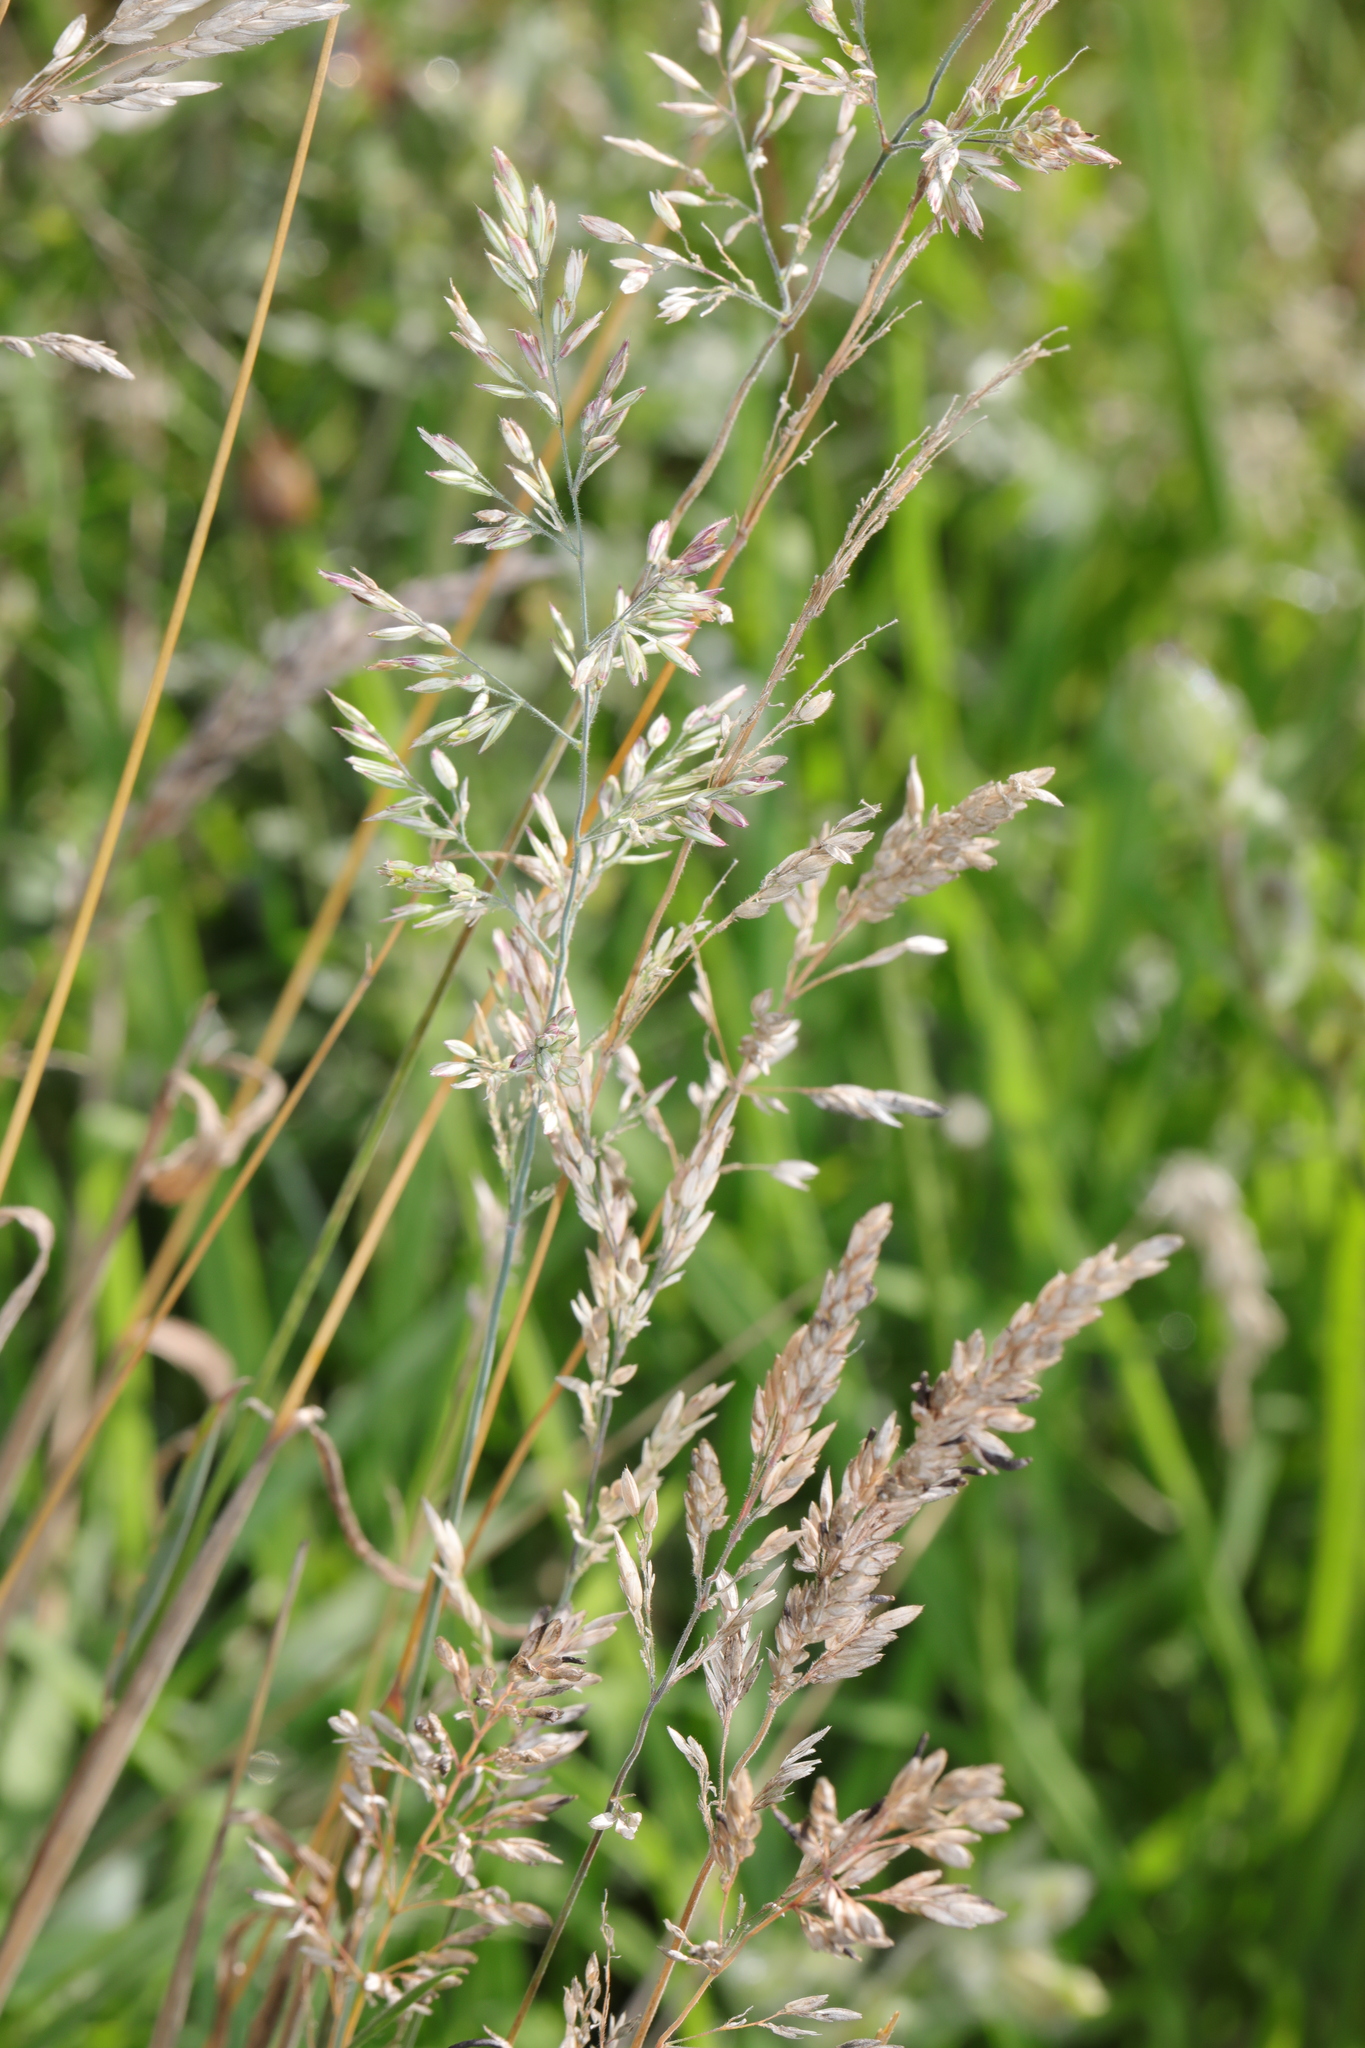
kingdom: Plantae
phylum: Tracheophyta
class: Liliopsida
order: Poales
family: Poaceae
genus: Holcus
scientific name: Holcus lanatus
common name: Yorkshire-fog
